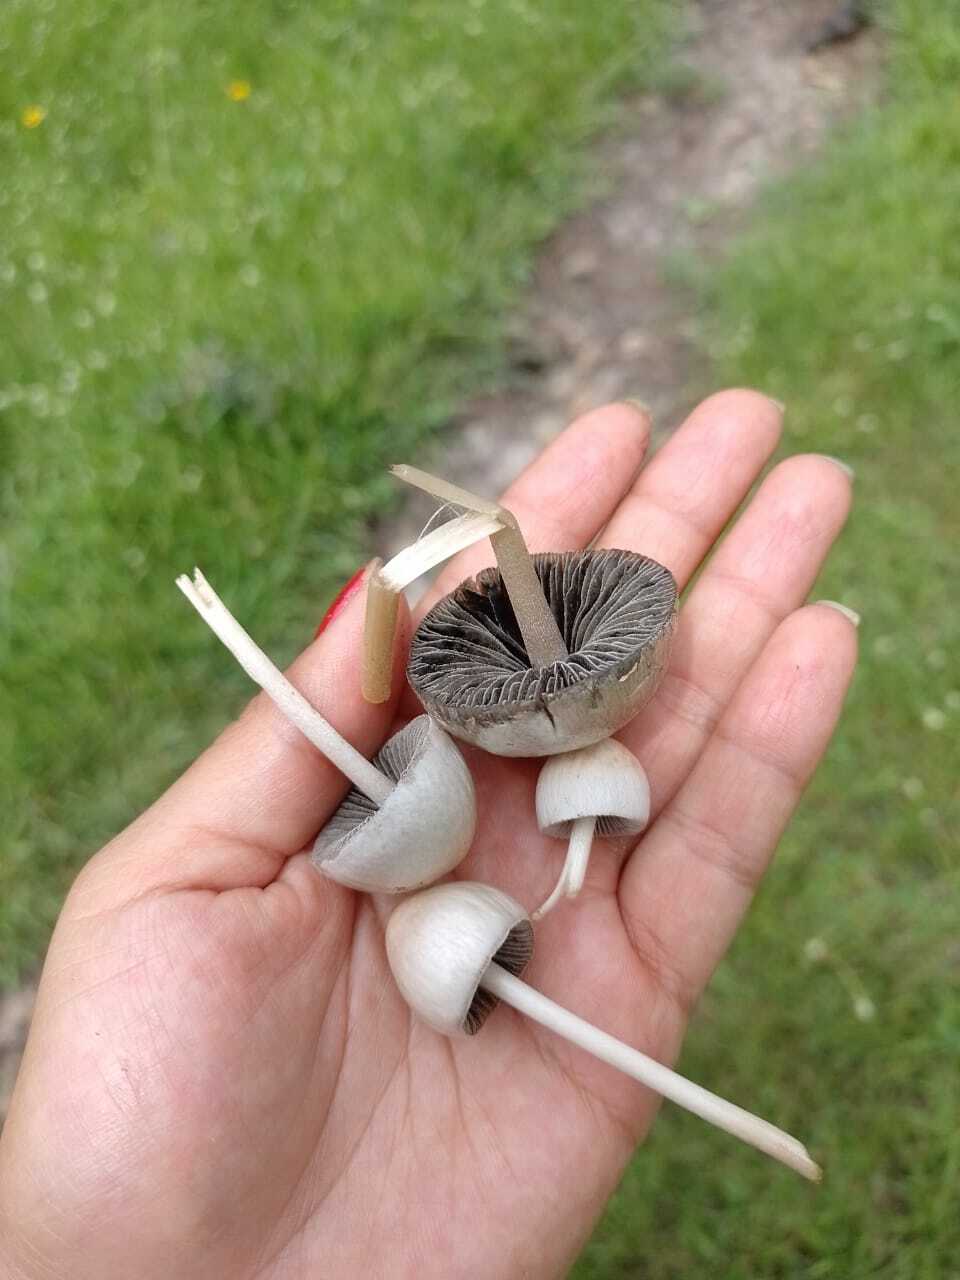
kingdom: Fungi
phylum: Basidiomycota
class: Agaricomycetes
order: Agaricales
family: Bolbitiaceae
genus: Panaeolus
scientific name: Panaeolus antillarum
